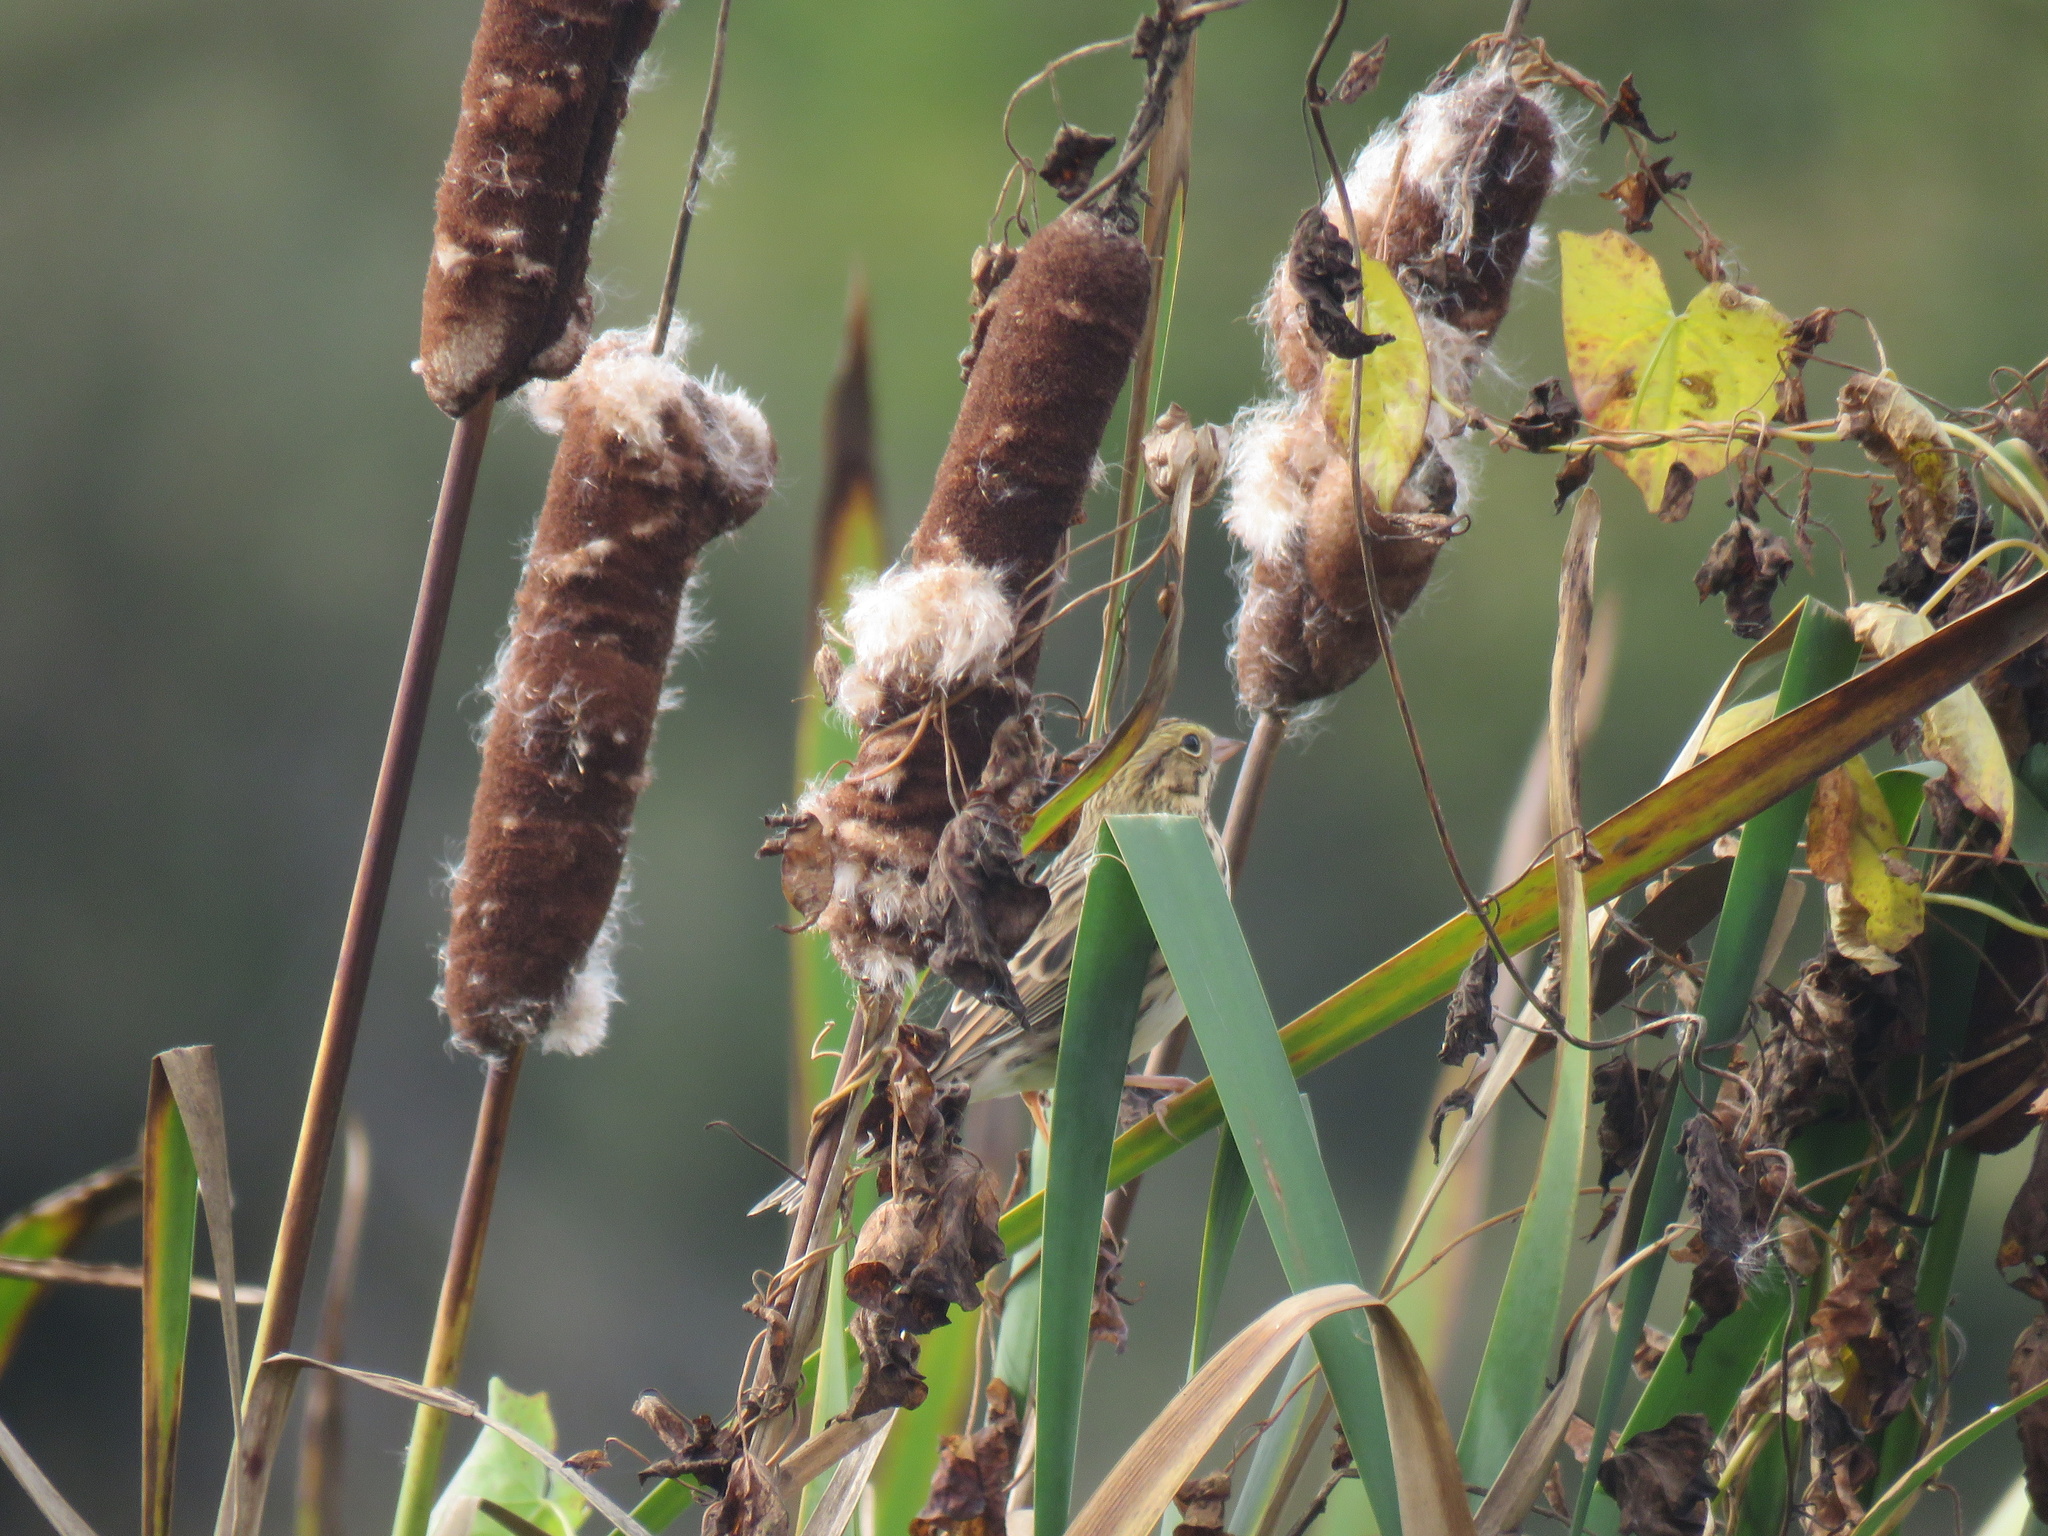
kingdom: Animalia
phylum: Chordata
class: Aves
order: Passeriformes
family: Passerellidae
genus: Passerculus
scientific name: Passerculus sandwichensis
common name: Savannah sparrow
